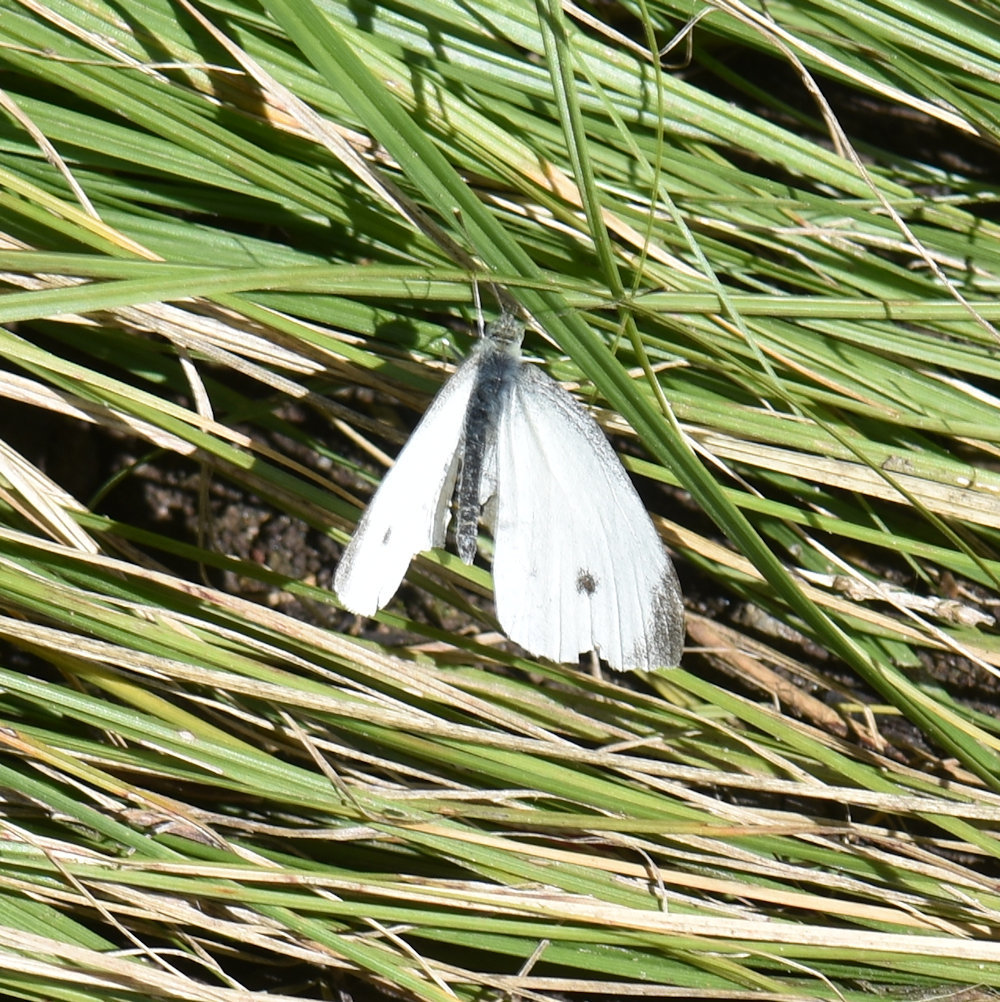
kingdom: Animalia
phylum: Arthropoda
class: Insecta
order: Lepidoptera
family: Pieridae
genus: Pieris
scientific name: Pieris rapae
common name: Small white
